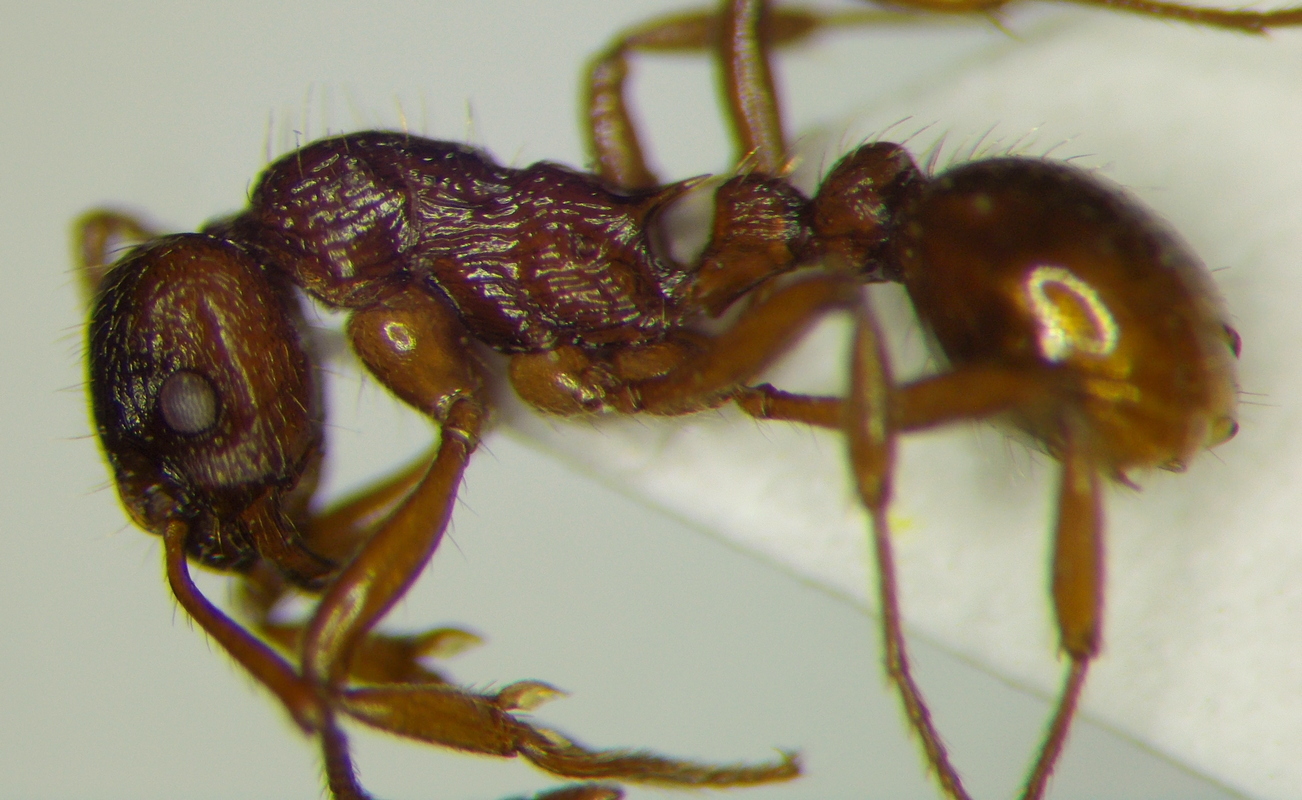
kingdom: Animalia
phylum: Arthropoda
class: Insecta
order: Hymenoptera
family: Formicidae
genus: Myrmica
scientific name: Myrmica ruginodis
